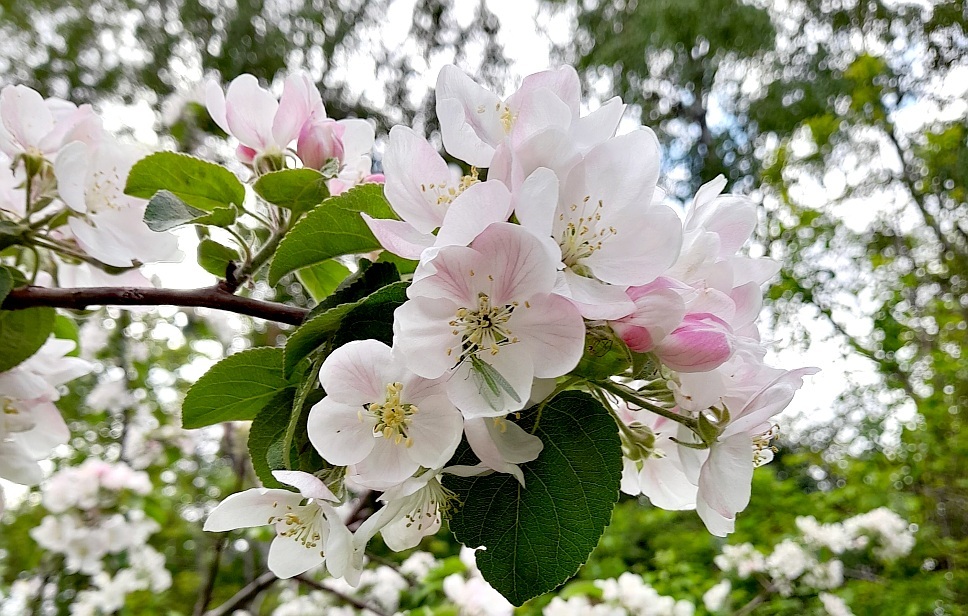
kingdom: Animalia
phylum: Arthropoda
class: Insecta
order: Neuroptera
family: Chrysopidae
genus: Chrysoperla
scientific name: Chrysoperla
